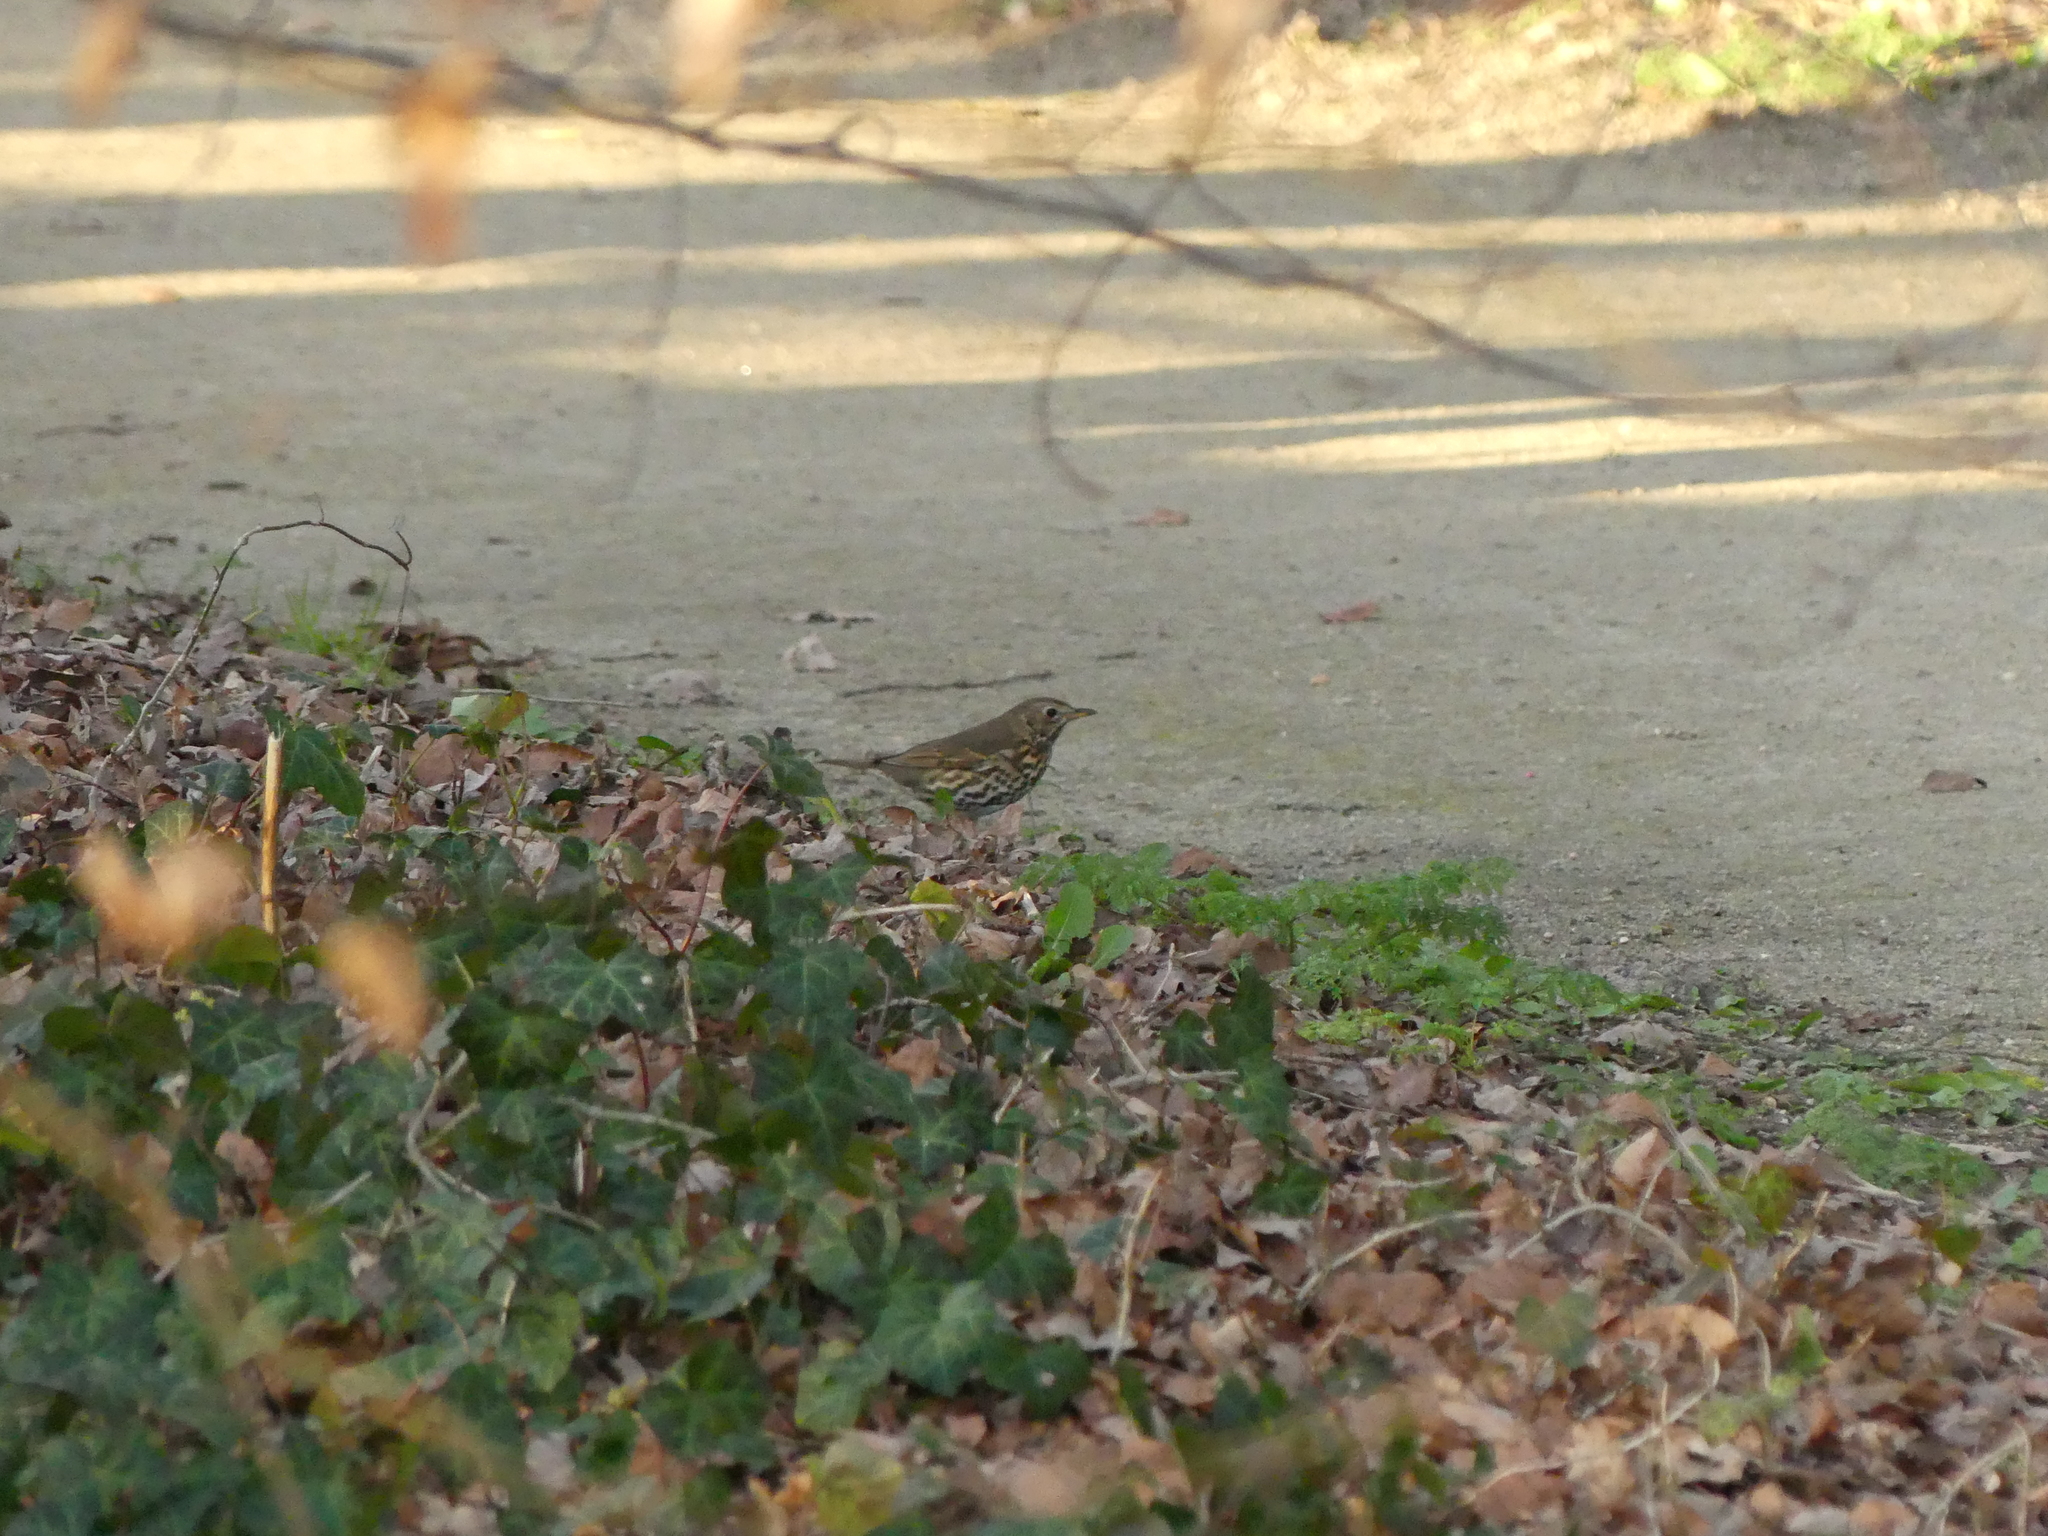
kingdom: Animalia
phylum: Chordata
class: Aves
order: Passeriformes
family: Turdidae
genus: Turdus
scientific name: Turdus philomelos
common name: Song thrush
